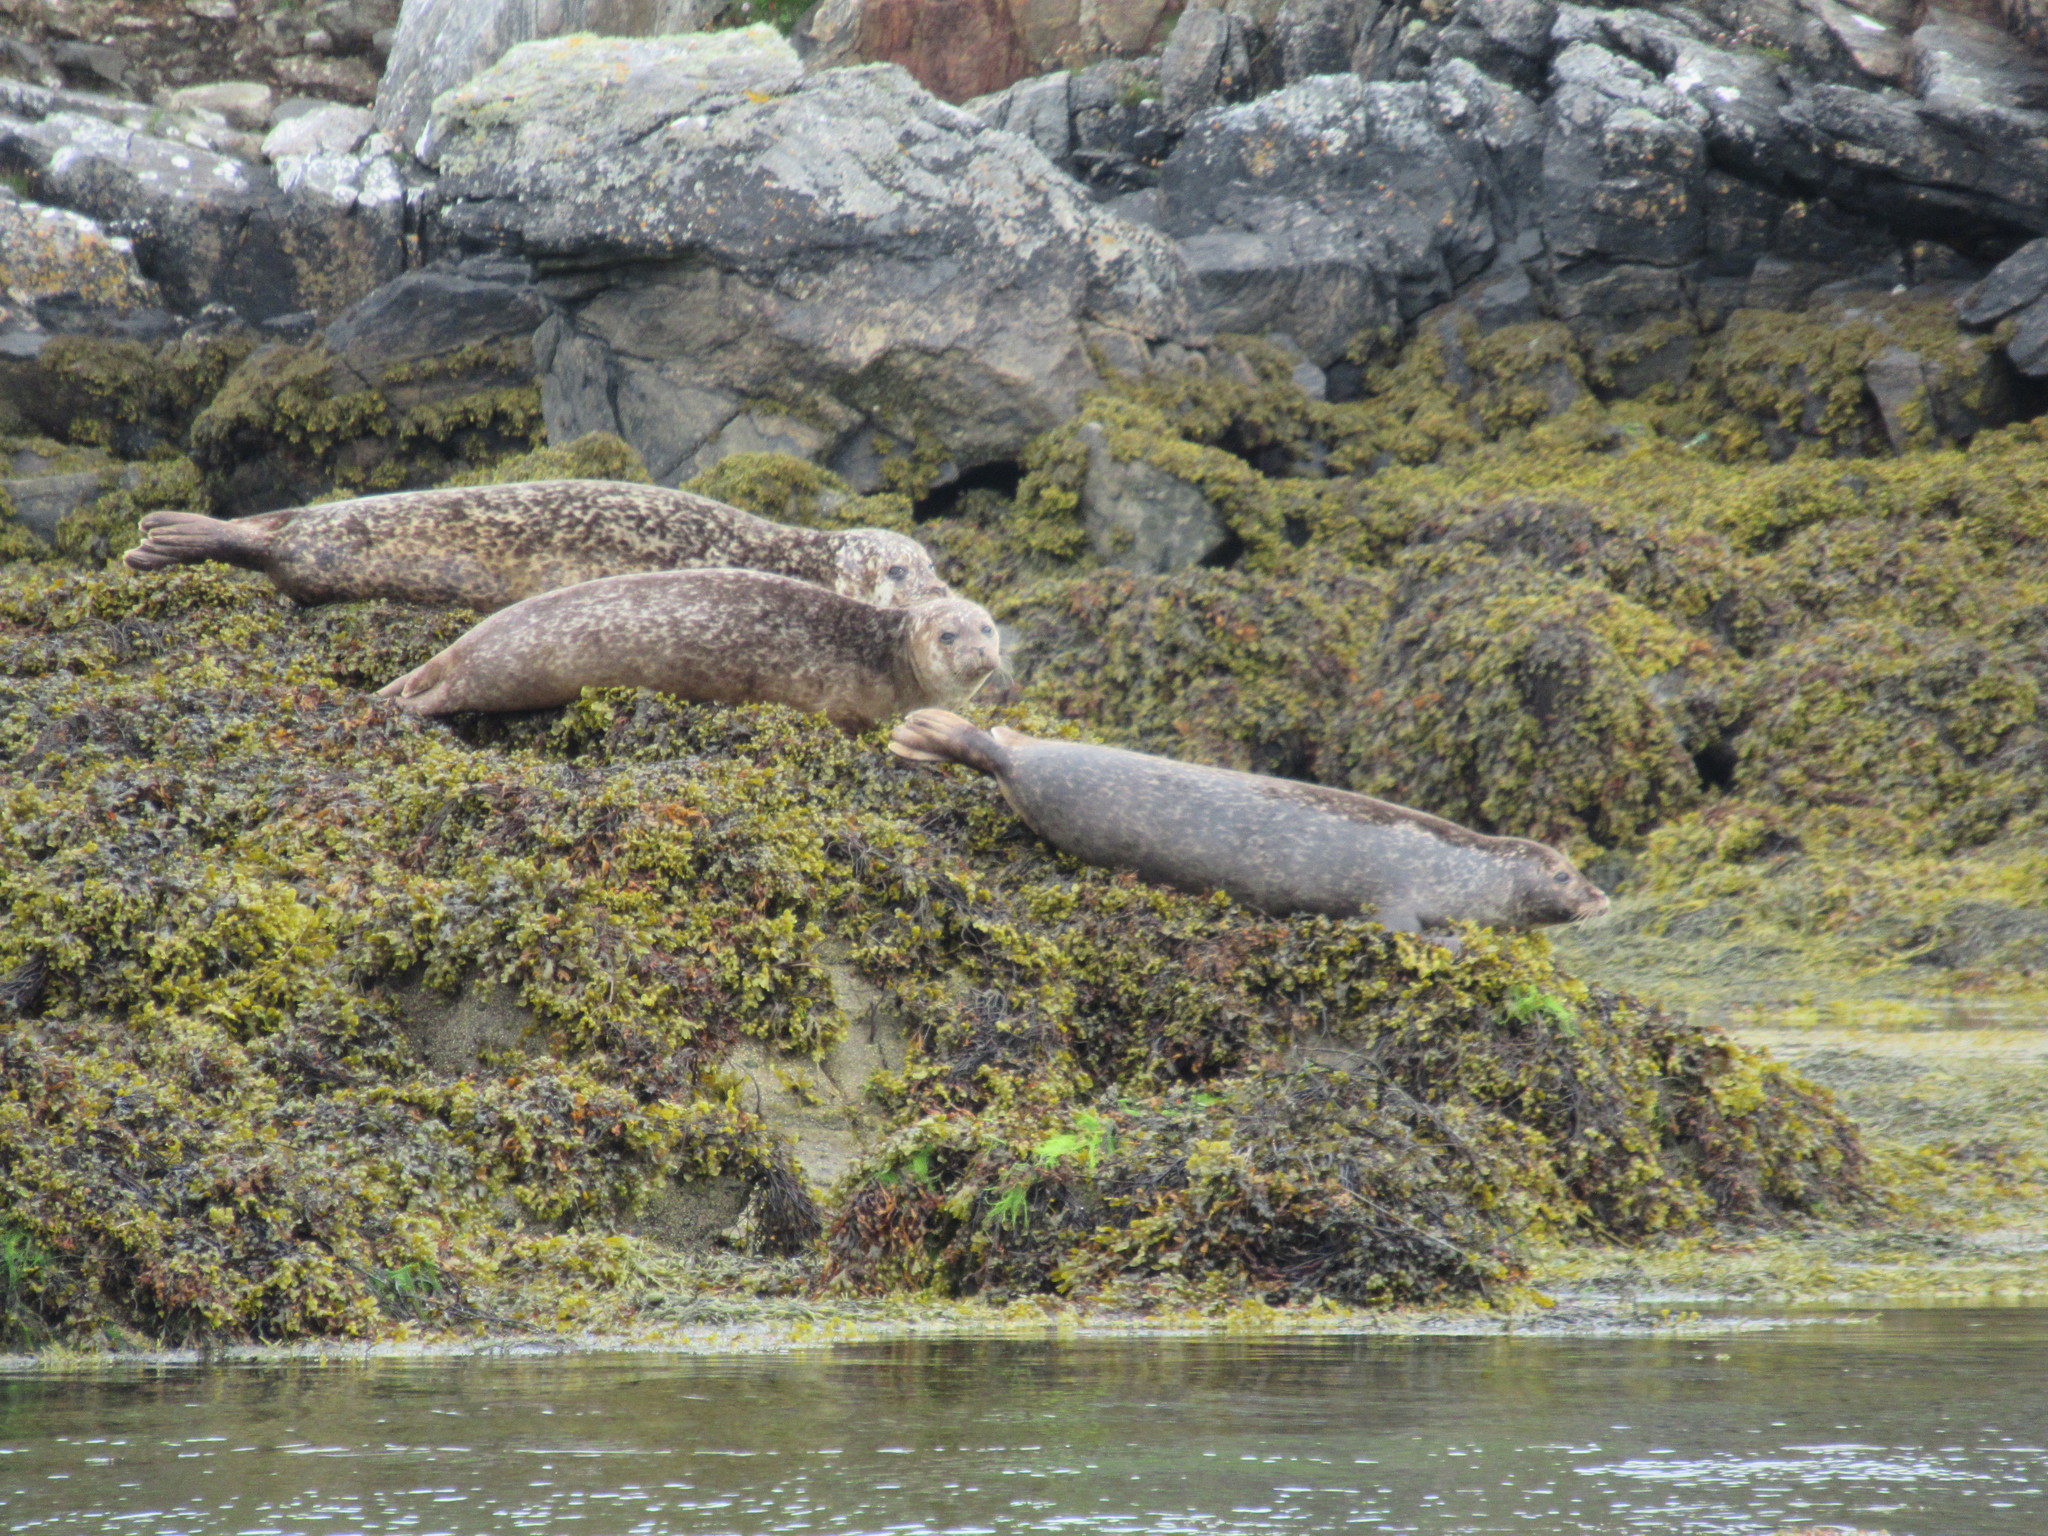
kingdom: Animalia
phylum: Chordata
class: Mammalia
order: Carnivora
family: Phocidae
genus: Phoca
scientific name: Phoca vitulina
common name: Harbor seal
